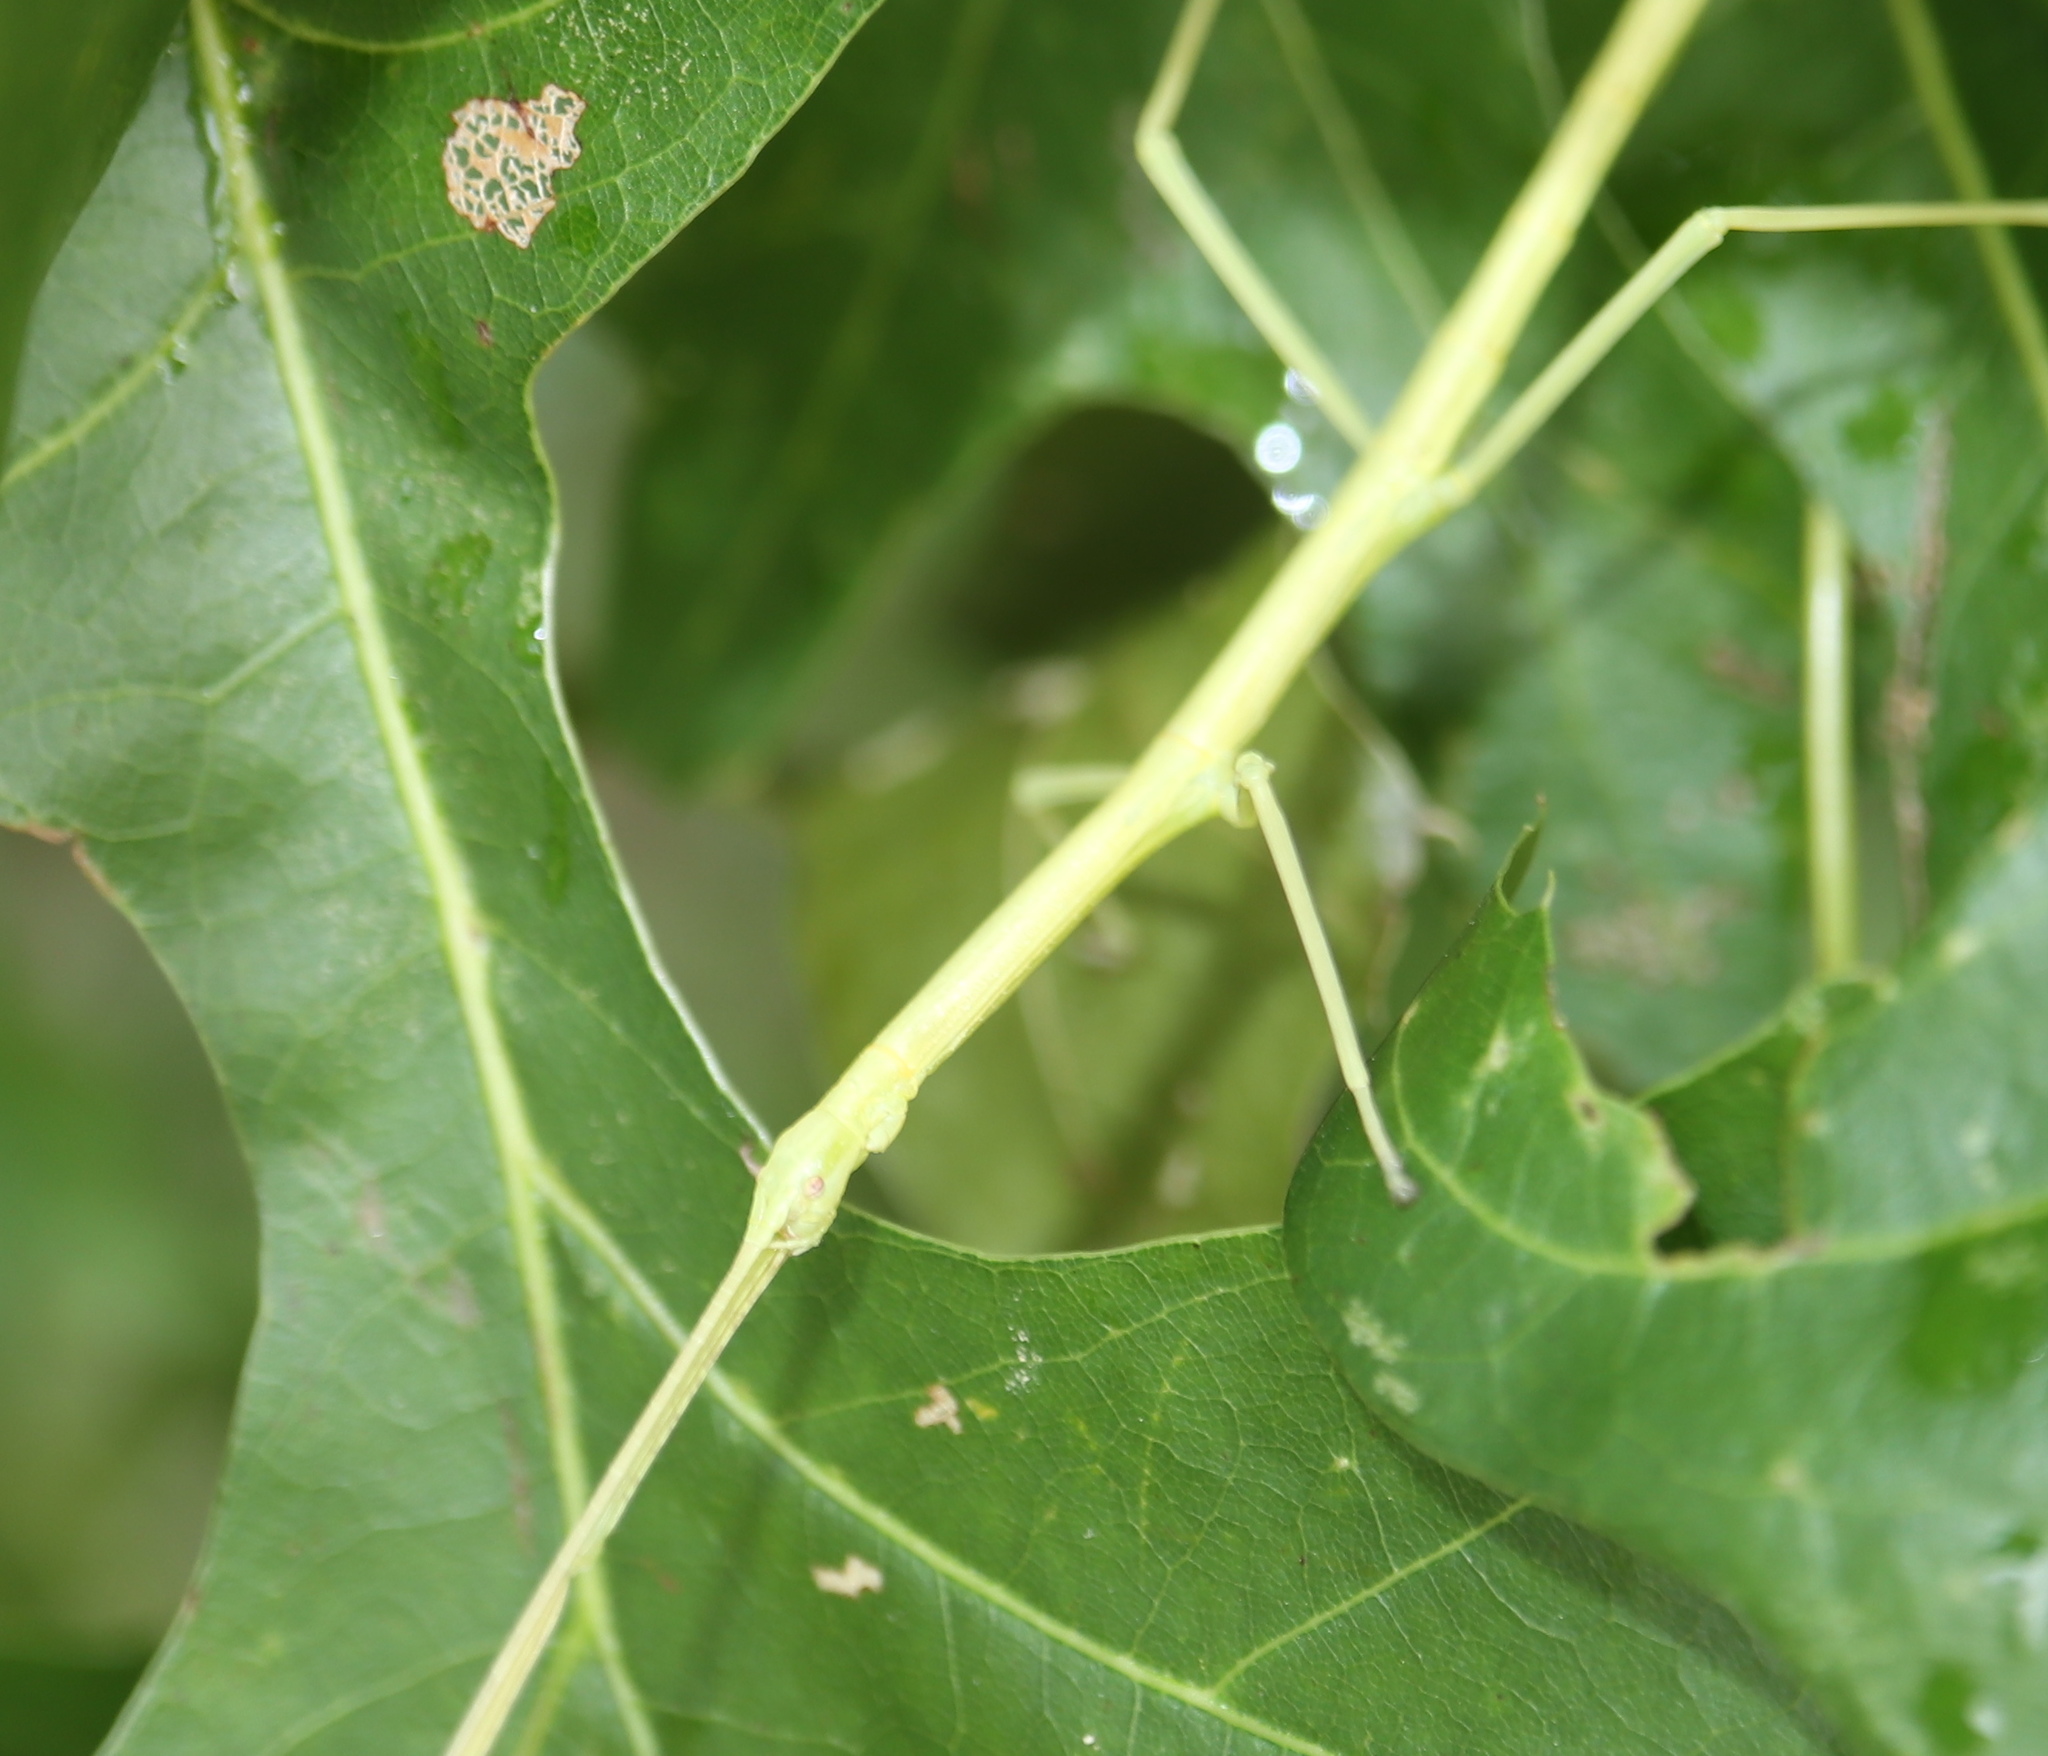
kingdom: Animalia
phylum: Arthropoda
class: Insecta
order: Phasmida
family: Diapheromeridae
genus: Diapheromera
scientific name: Diapheromera femorata
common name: Common american walkingstick
